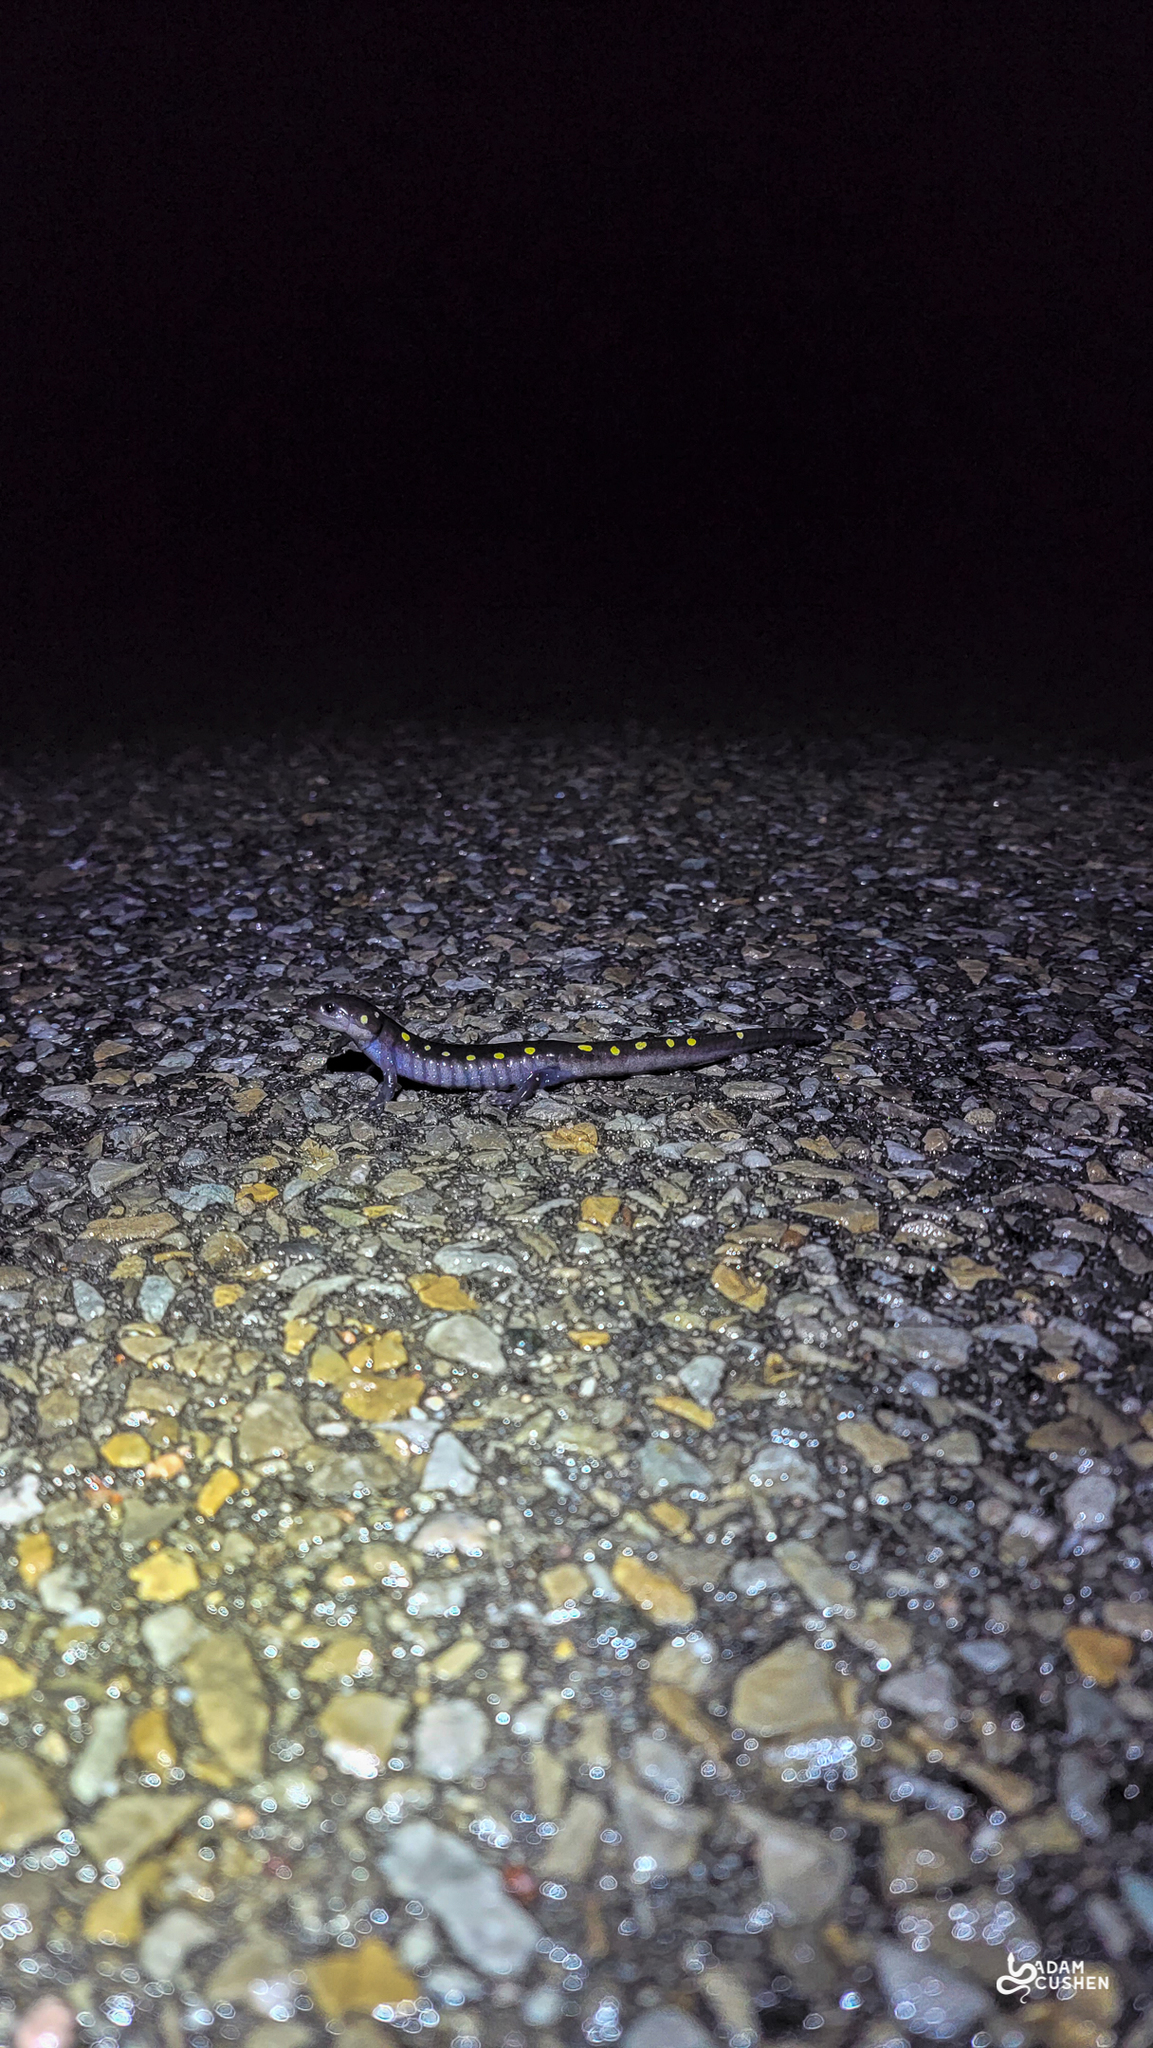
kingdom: Animalia
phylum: Chordata
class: Amphibia
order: Caudata
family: Ambystomatidae
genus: Ambystoma
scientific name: Ambystoma maculatum
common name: Spotted salamander
